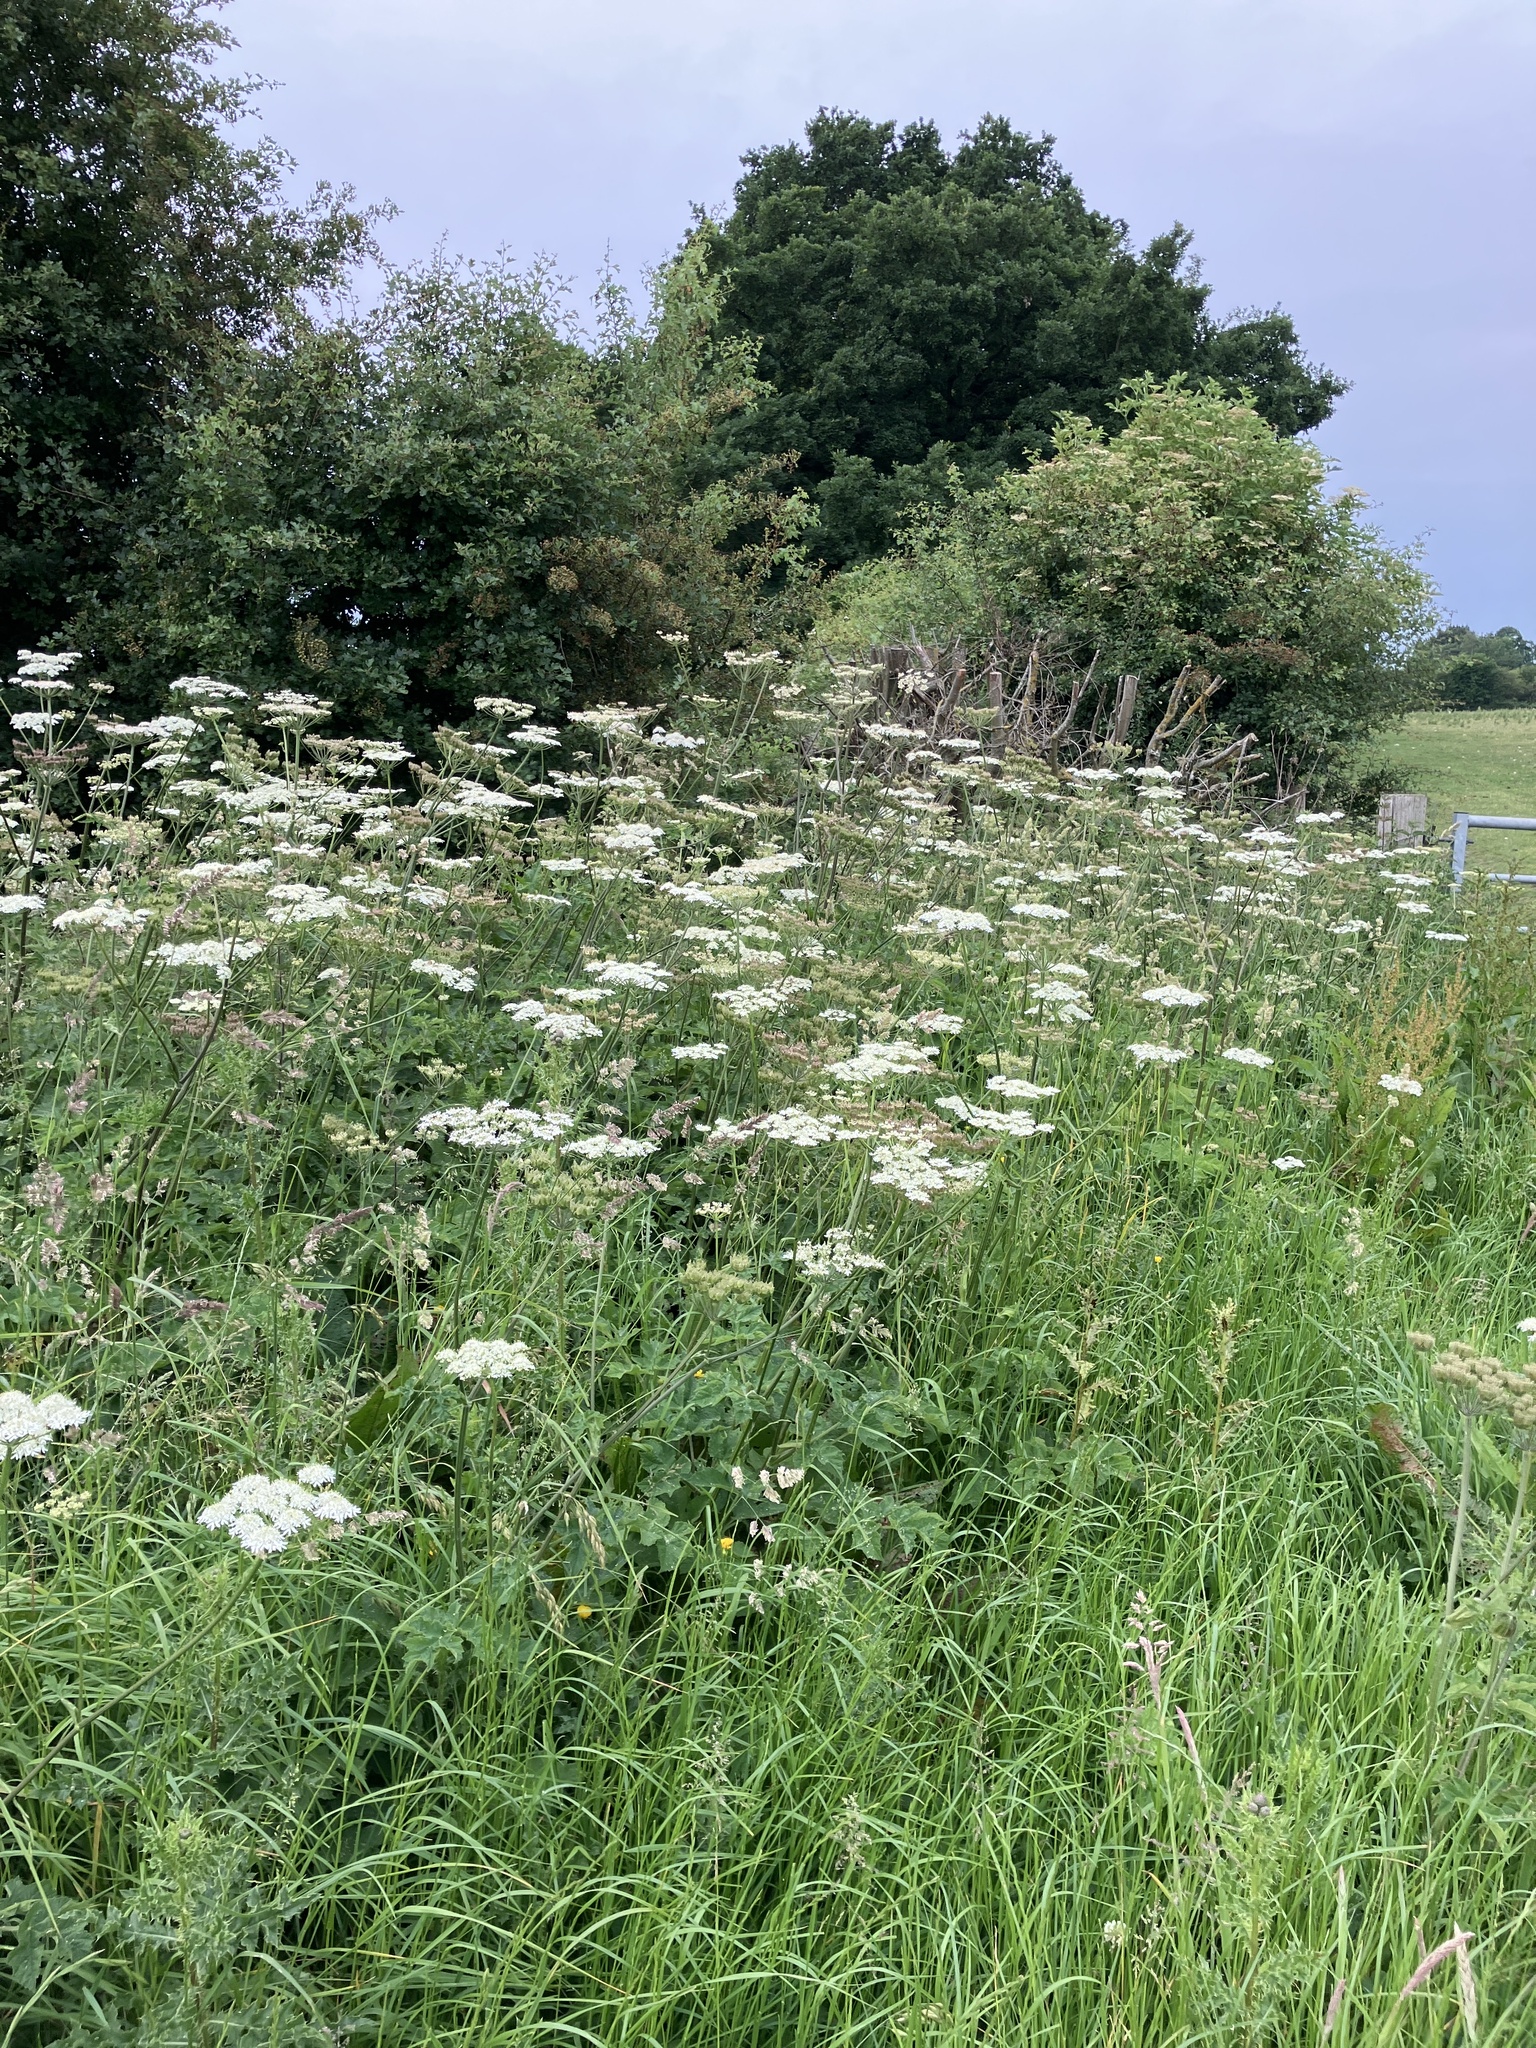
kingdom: Plantae
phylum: Tracheophyta
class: Magnoliopsida
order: Apiales
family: Apiaceae
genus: Heracleum
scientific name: Heracleum sphondylium
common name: Hogweed
